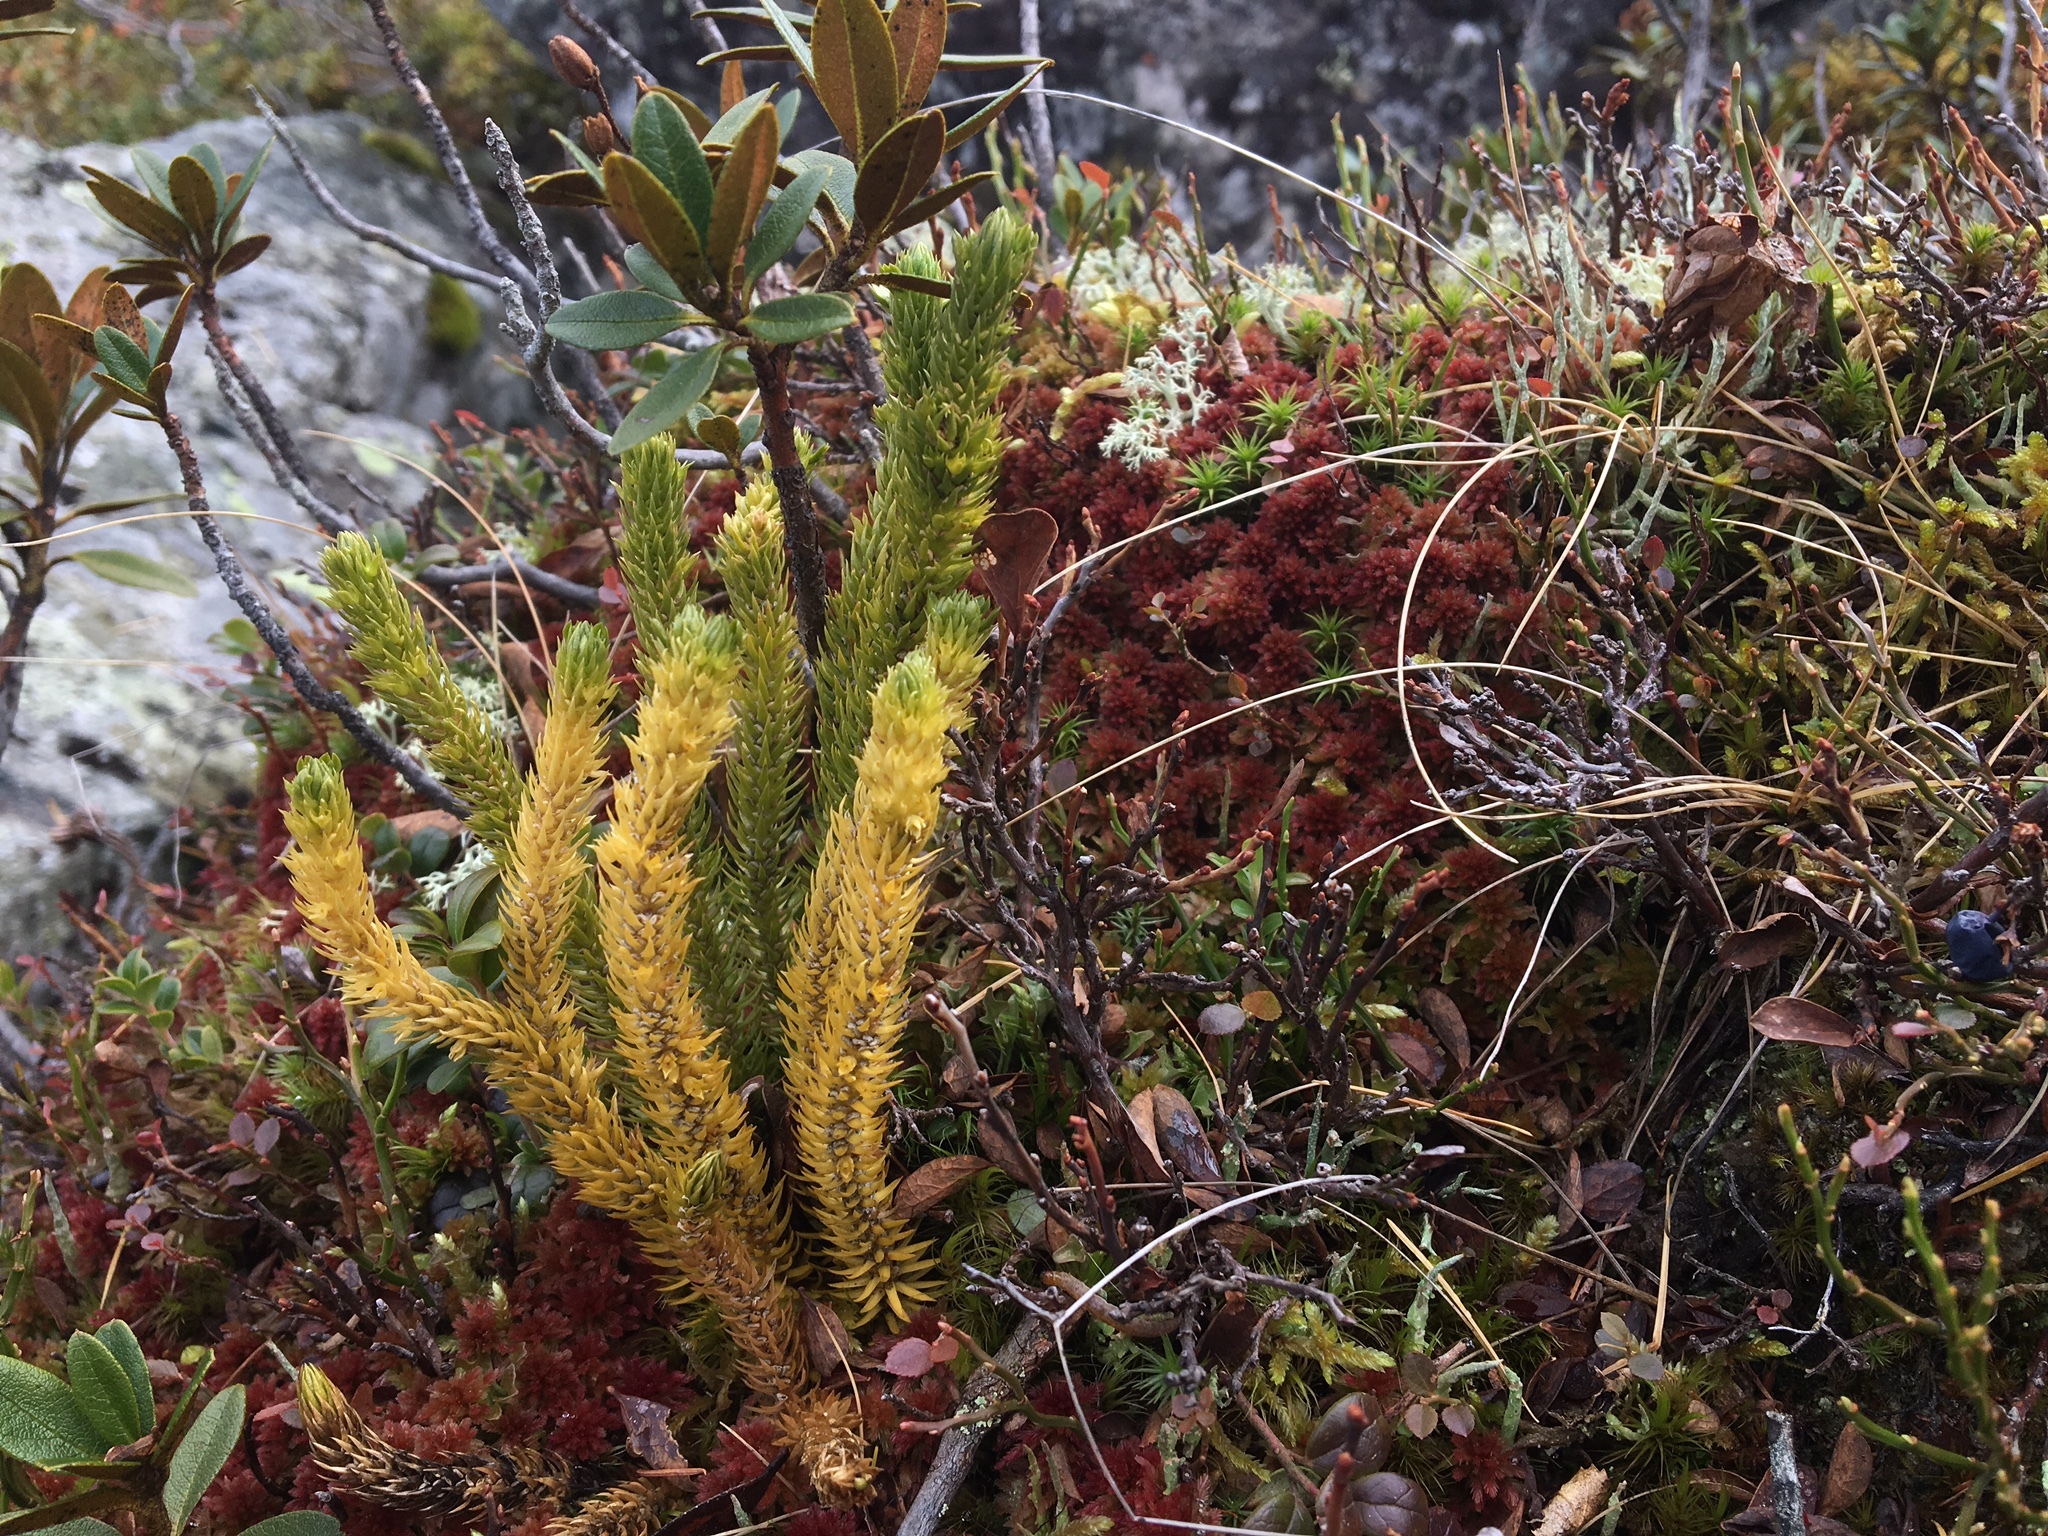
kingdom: Plantae
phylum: Tracheophyta
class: Lycopodiopsida
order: Lycopodiales
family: Lycopodiaceae
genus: Huperzia
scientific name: Huperzia selago
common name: Northern firmoss
